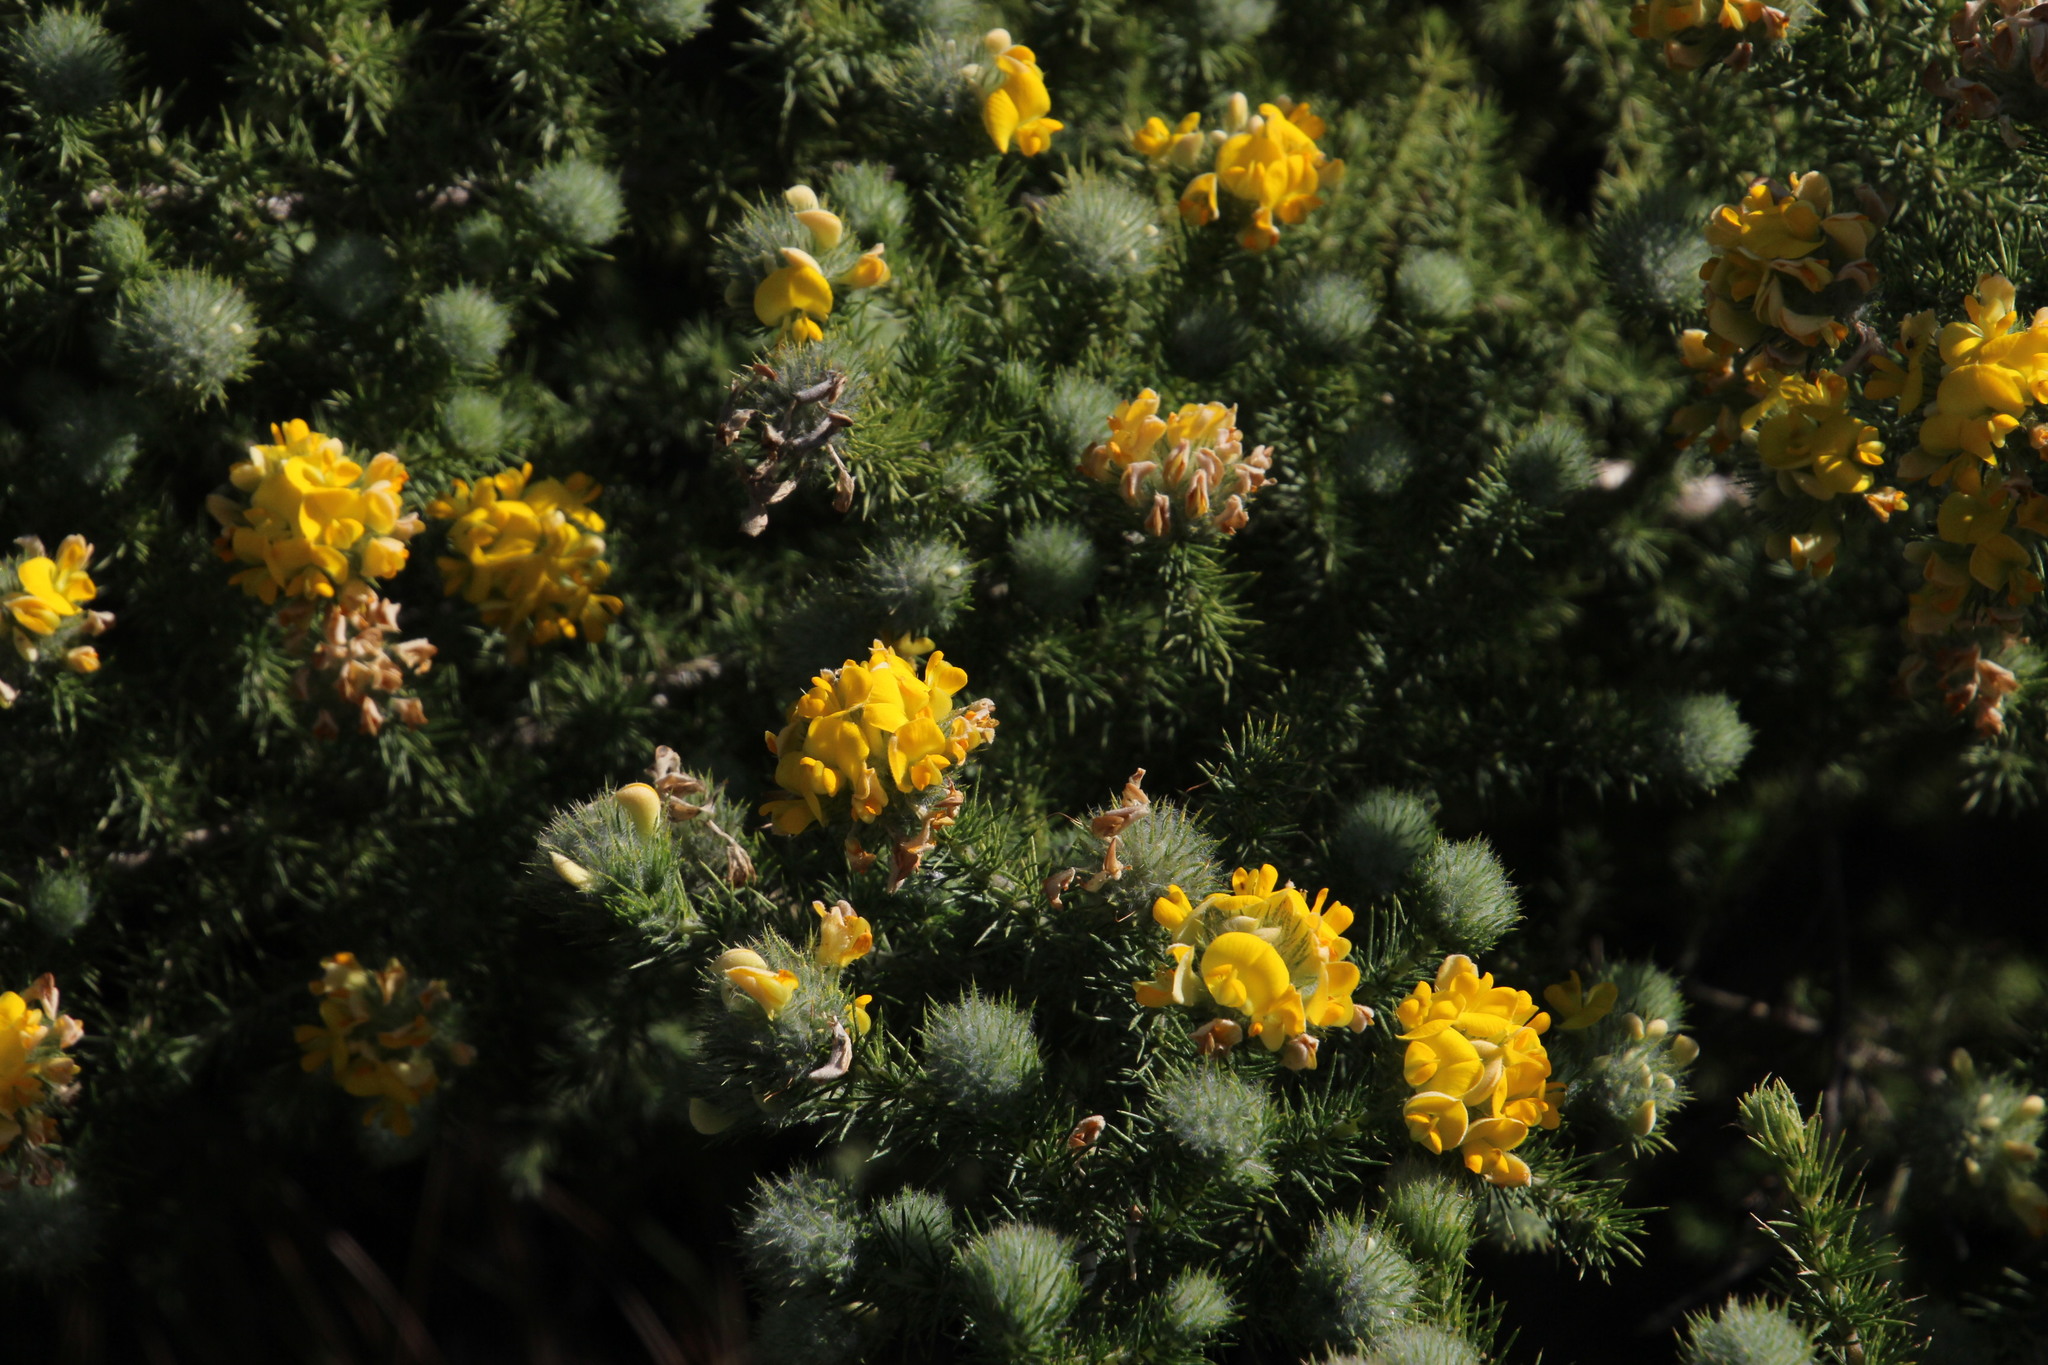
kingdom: Plantae
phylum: Tracheophyta
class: Magnoliopsida
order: Fabales
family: Fabaceae
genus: Aspalathus
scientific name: Aspalathus chenopoda
